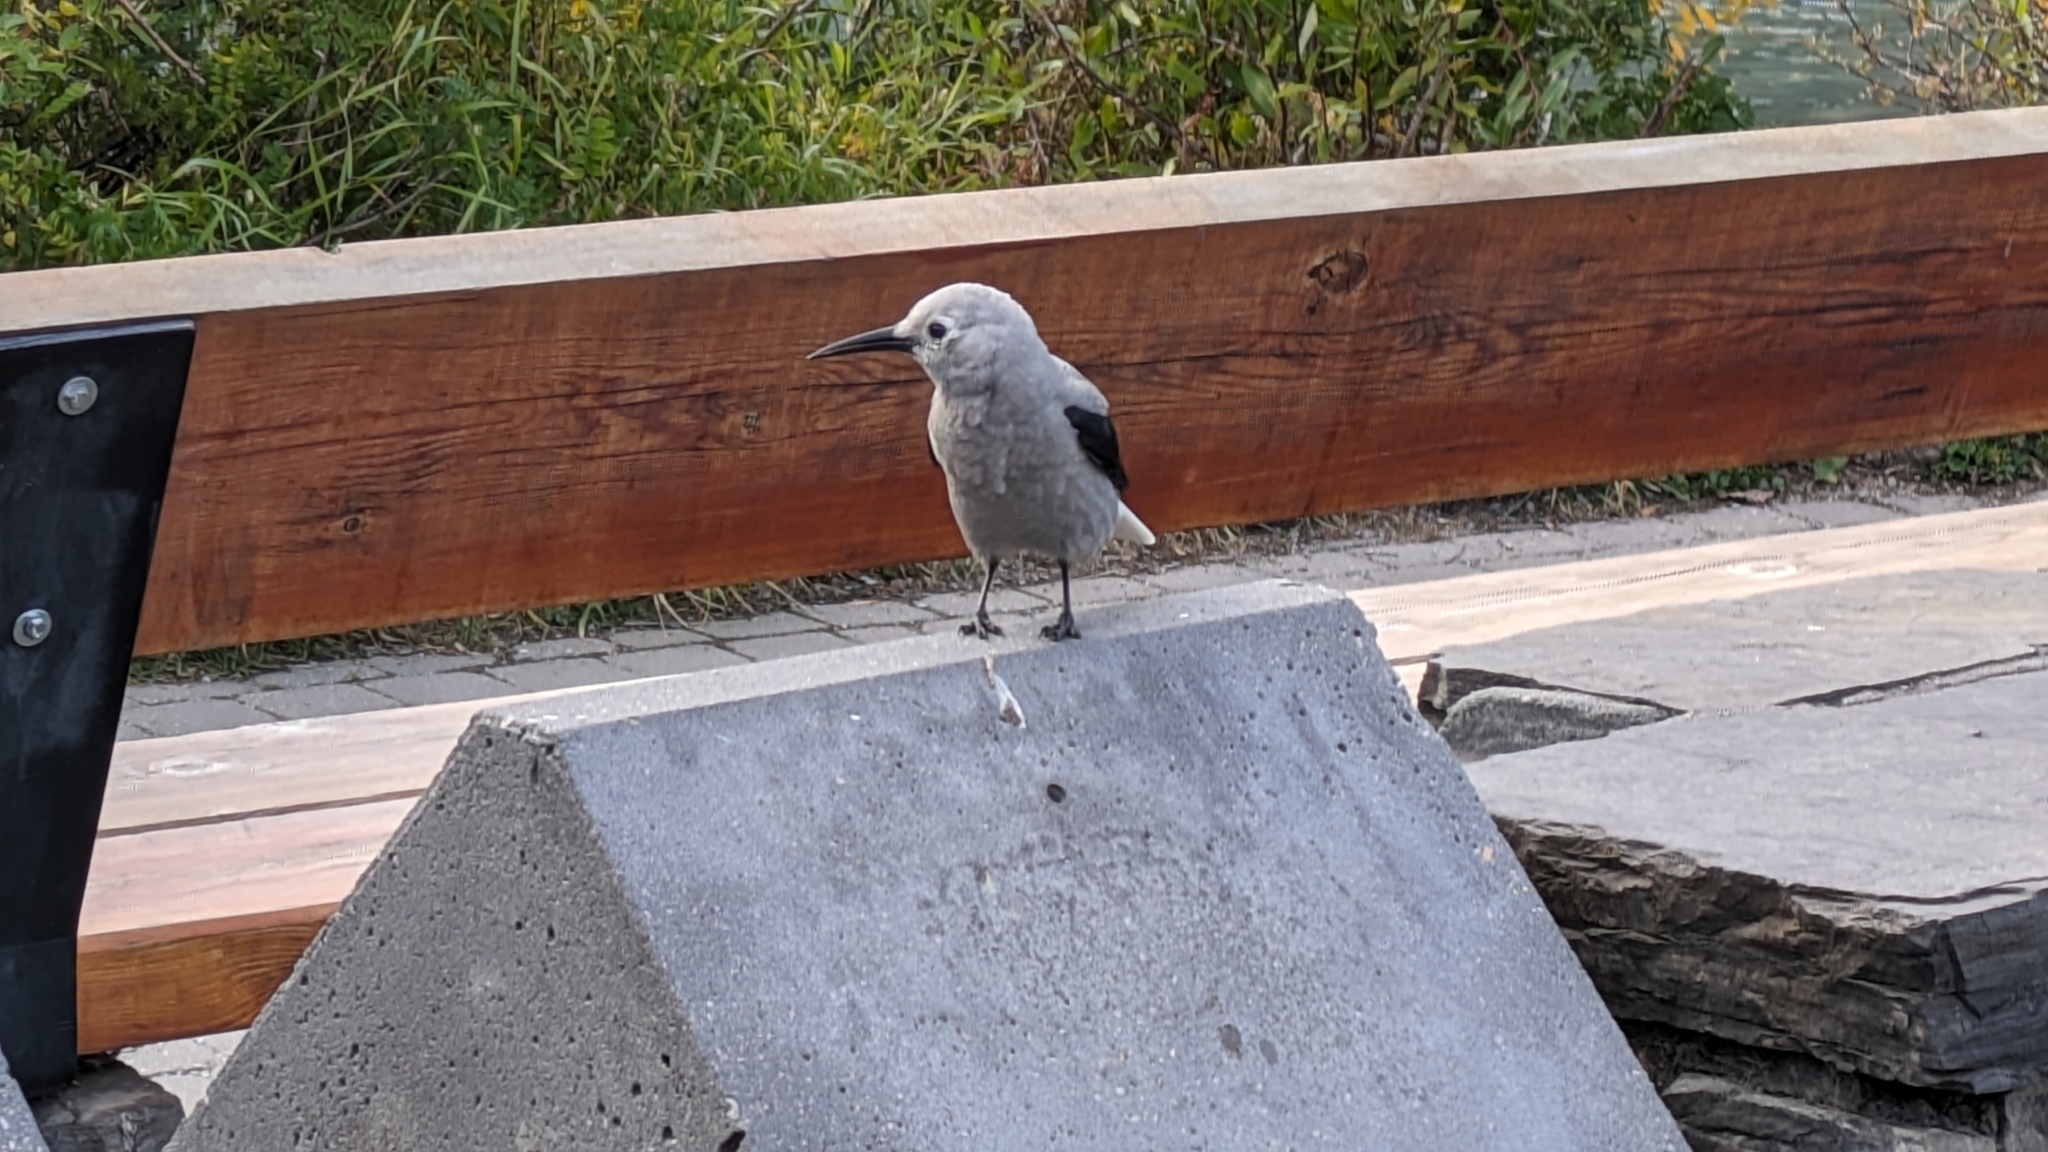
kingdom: Animalia
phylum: Chordata
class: Aves
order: Passeriformes
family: Corvidae
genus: Nucifraga
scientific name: Nucifraga columbiana
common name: Clark's nutcracker
